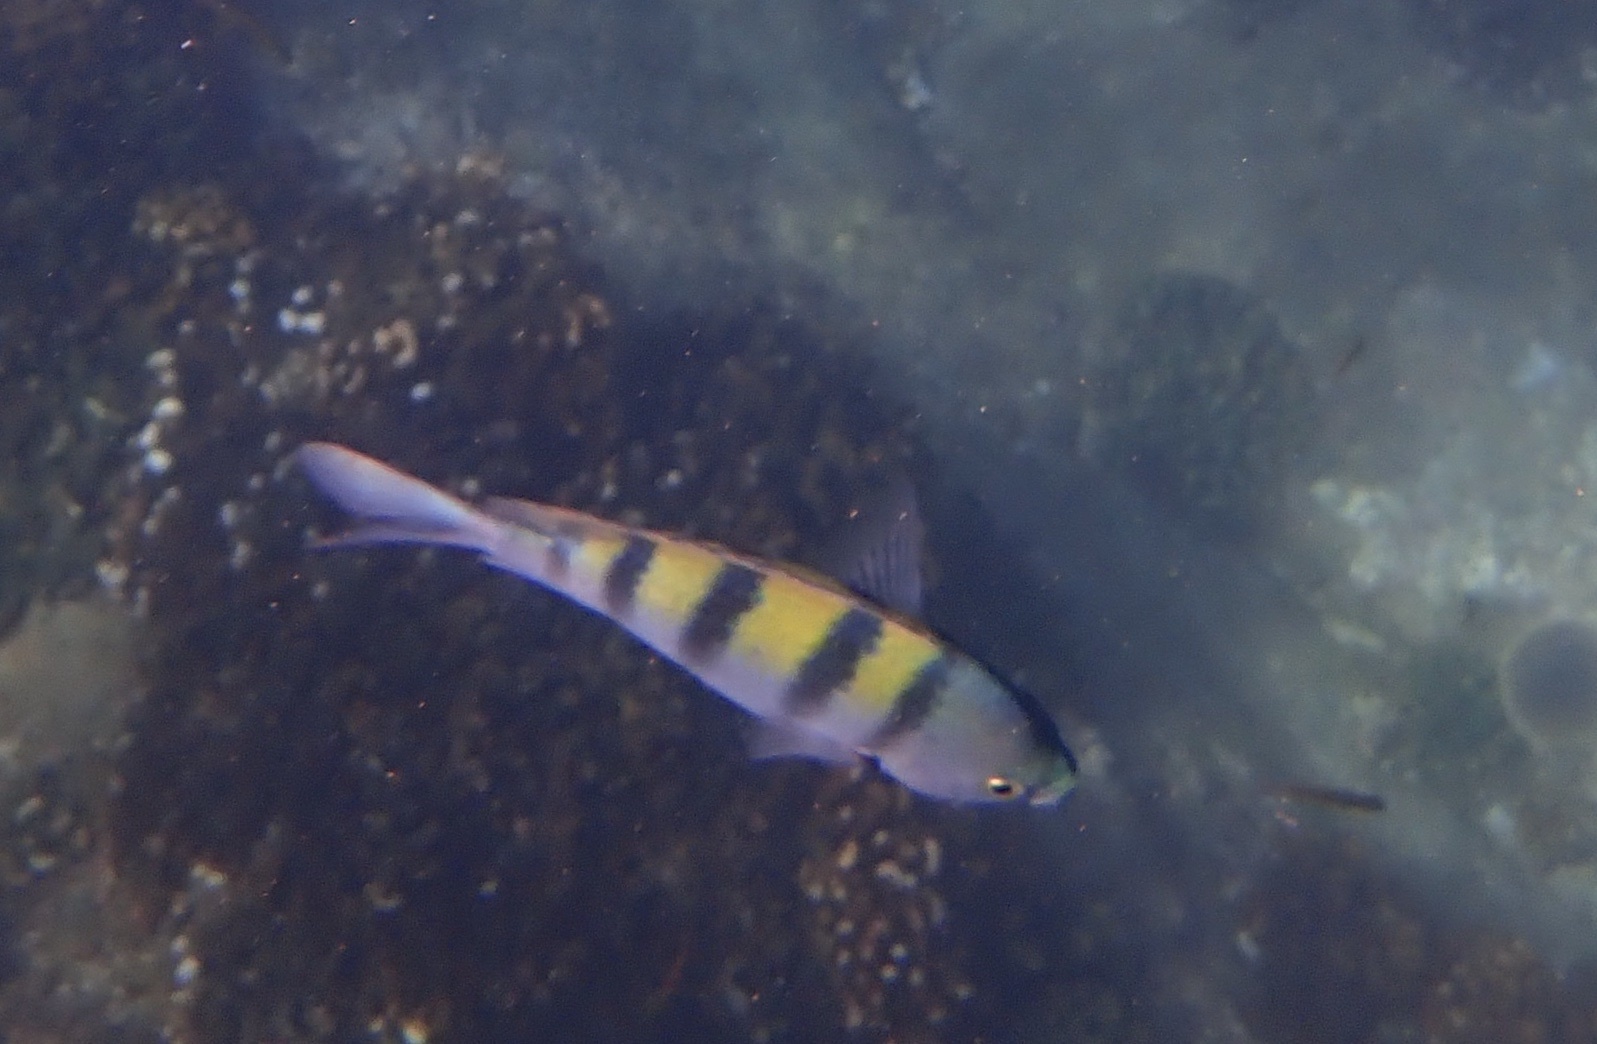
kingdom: Animalia
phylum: Chordata
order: Perciformes
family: Pomacentridae
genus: Abudefduf
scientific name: Abudefduf troschelii
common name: Panamic sergeant major
